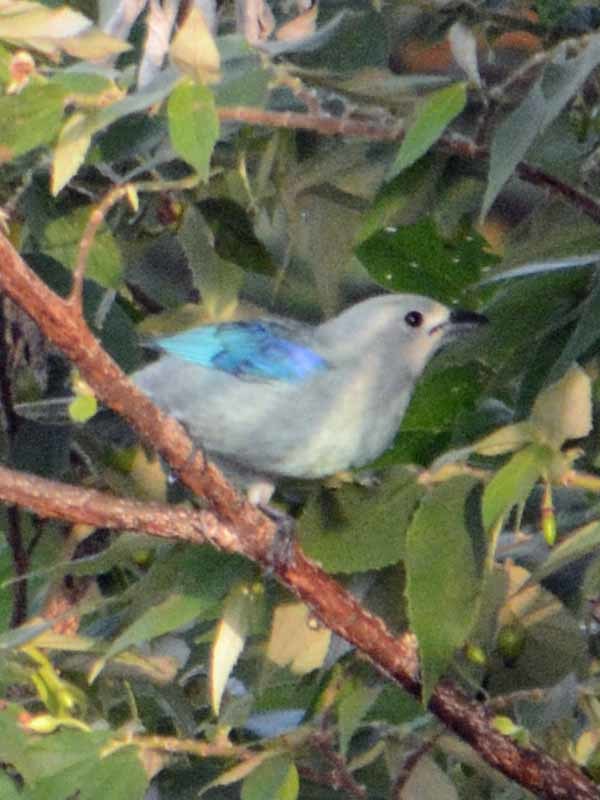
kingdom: Animalia
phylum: Chordata
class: Aves
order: Passeriformes
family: Thraupidae
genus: Thraupis
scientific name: Thraupis episcopus
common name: Blue-grey tanager
